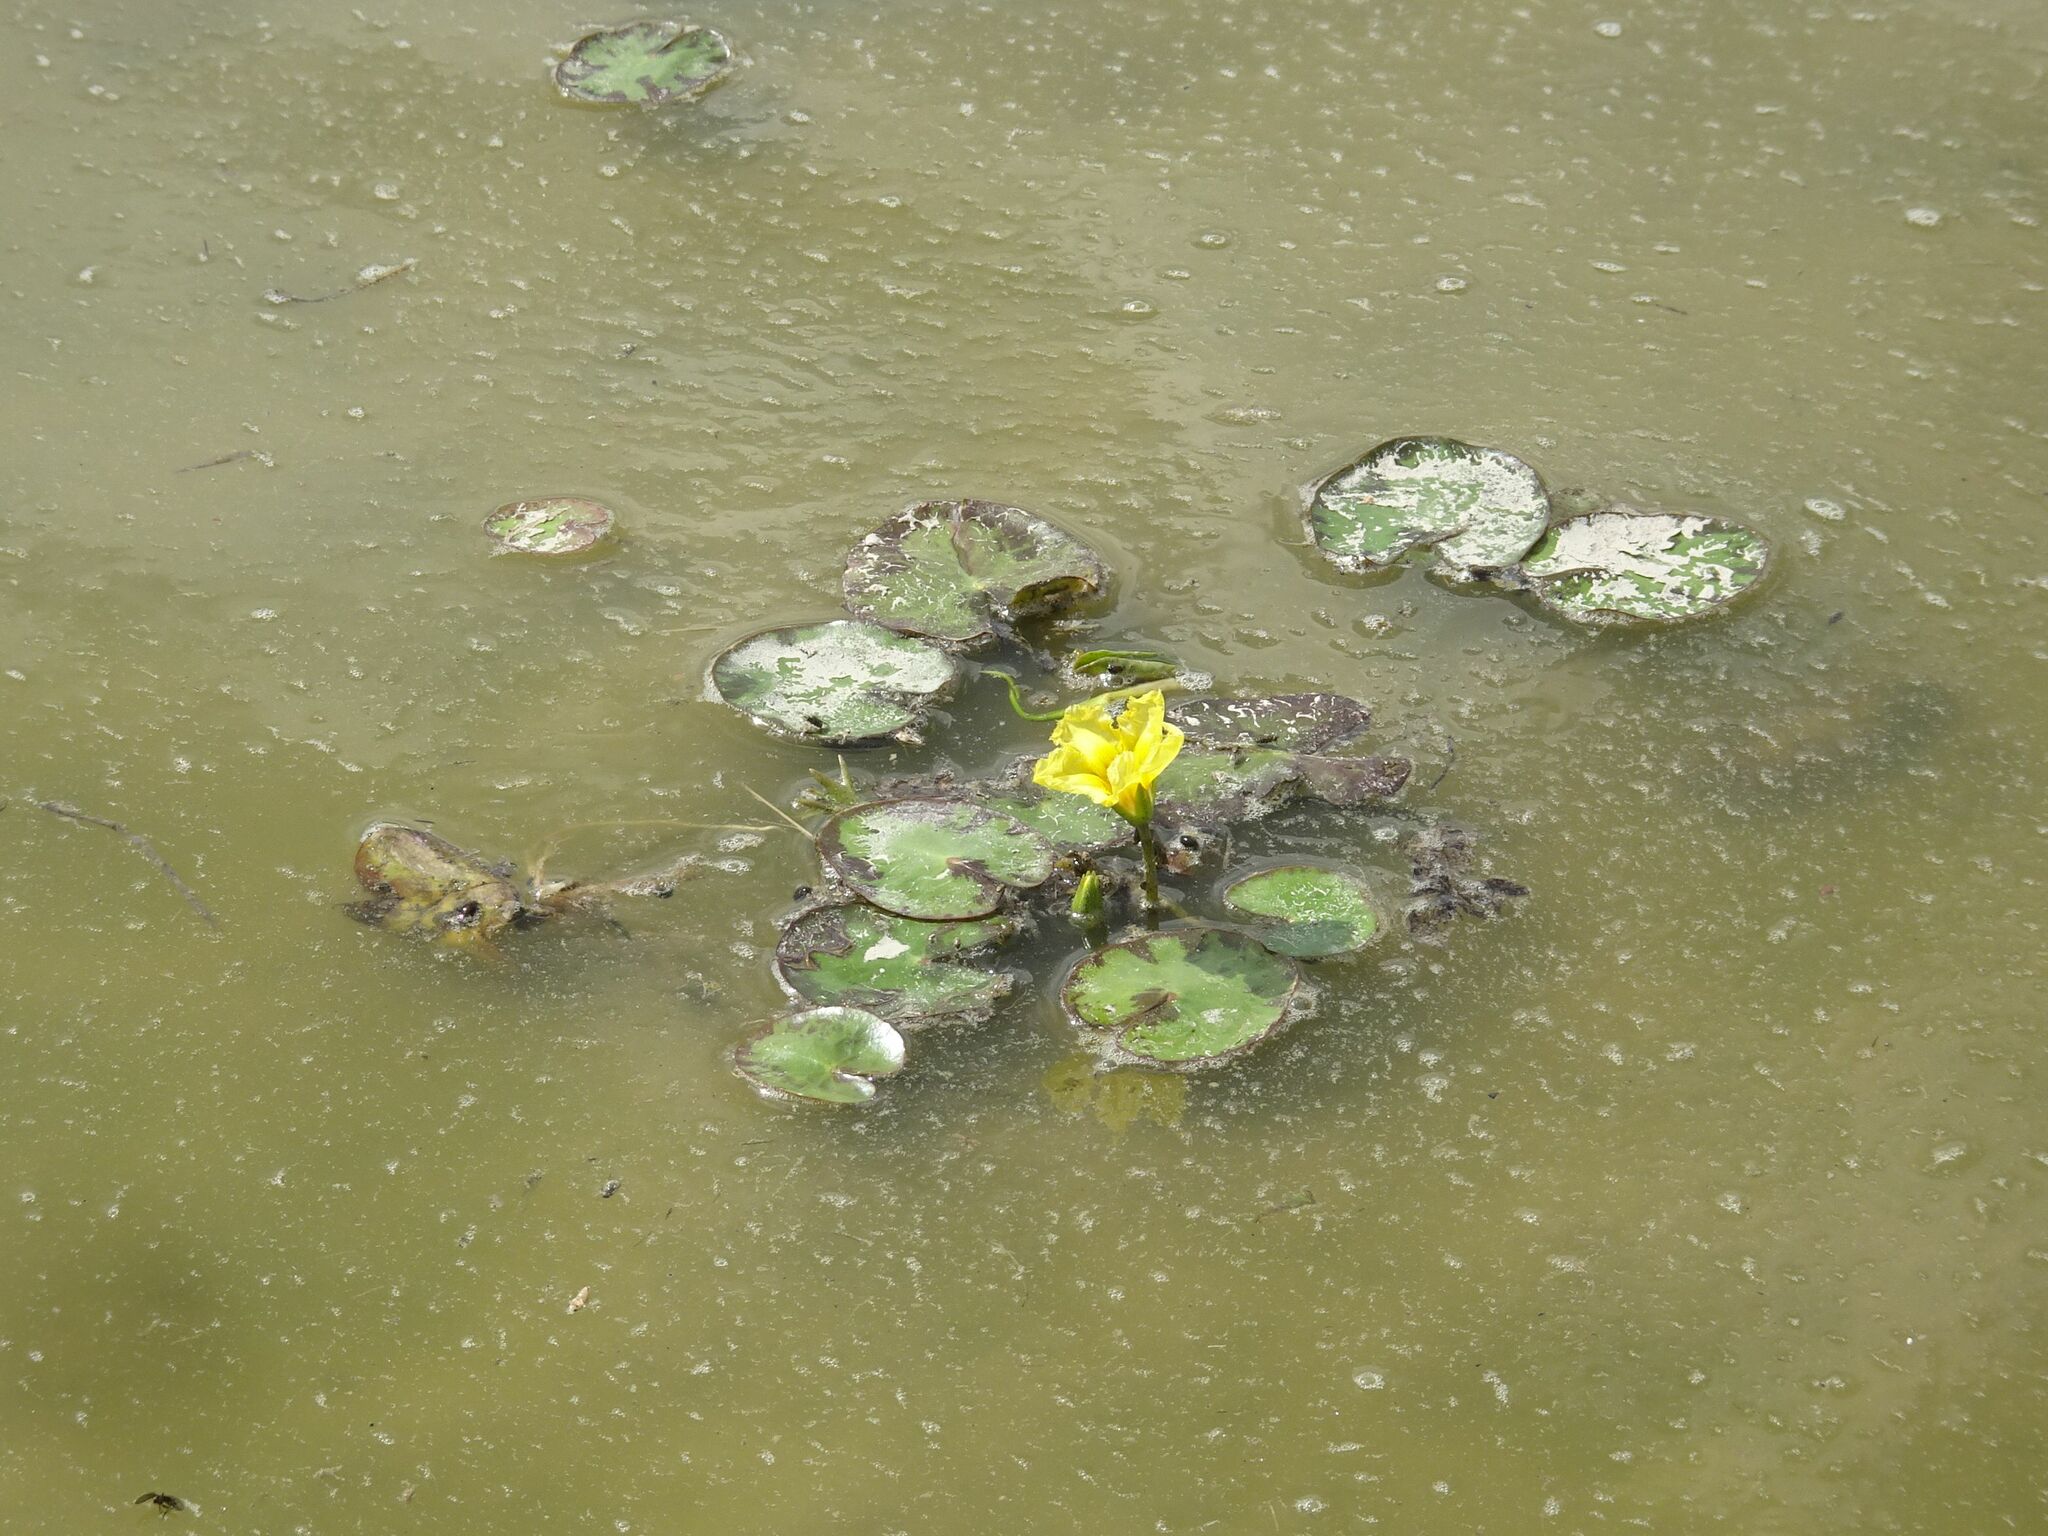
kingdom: Plantae
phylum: Tracheophyta
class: Magnoliopsida
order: Asterales
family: Menyanthaceae
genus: Nymphoides
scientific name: Nymphoides peltata
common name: Fringed water-lily
